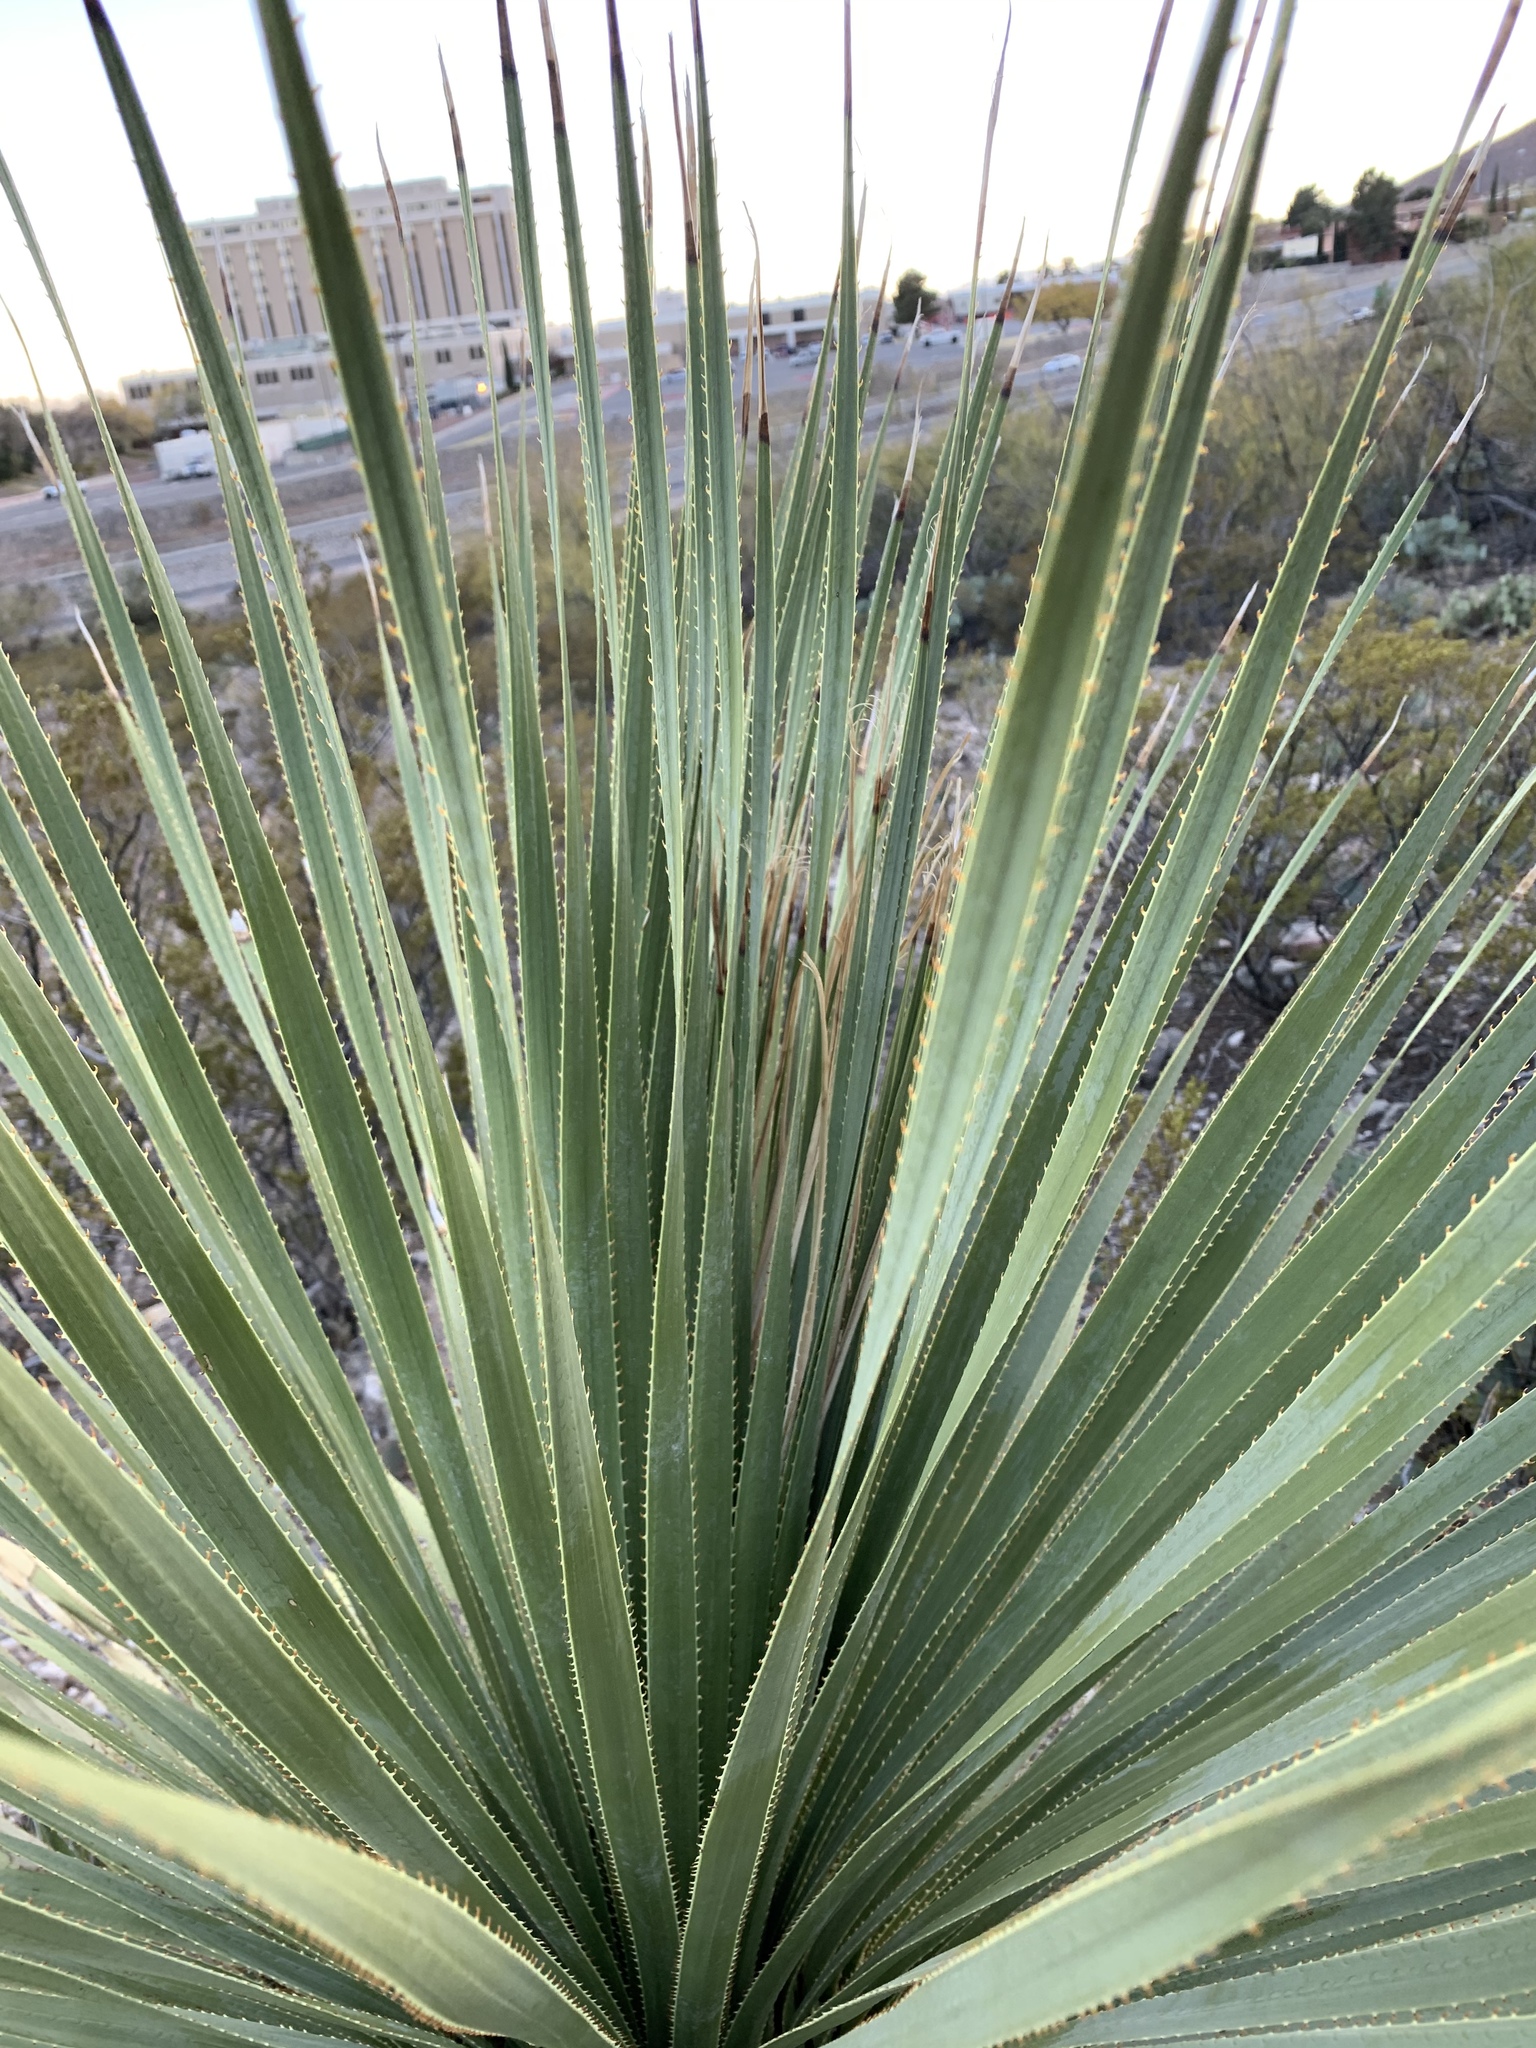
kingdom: Plantae
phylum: Tracheophyta
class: Liliopsida
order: Asparagales
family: Asparagaceae
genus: Dasylirion
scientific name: Dasylirion wheeleri
